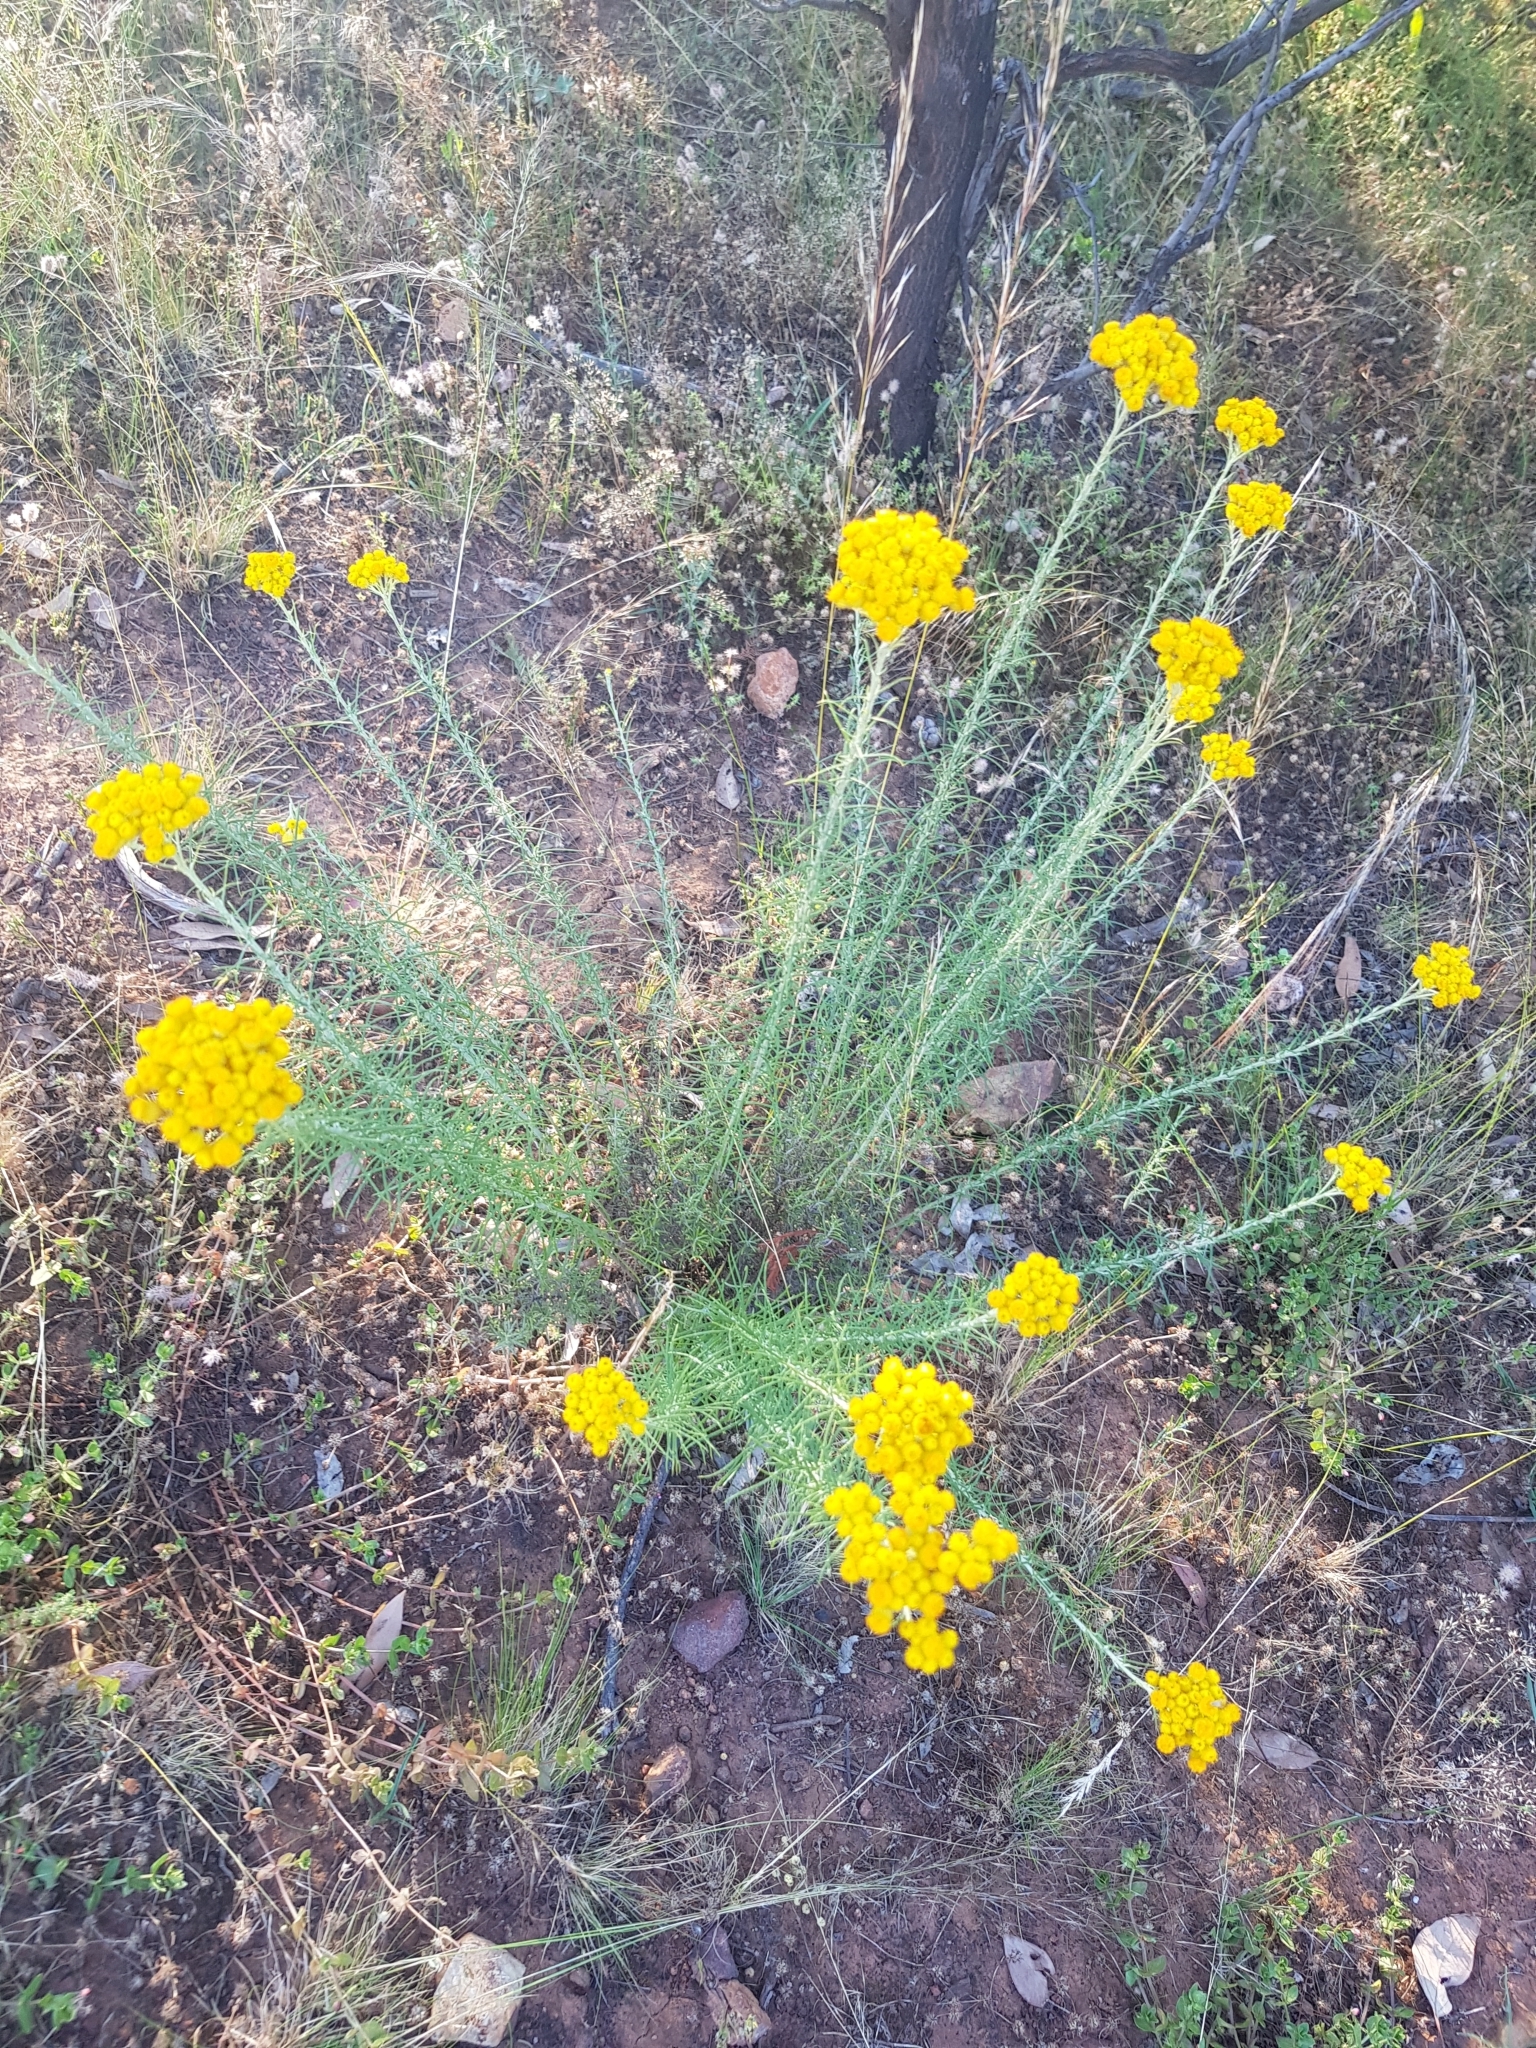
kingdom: Plantae
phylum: Tracheophyta
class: Magnoliopsida
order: Asterales
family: Asteraceae
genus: Chrysocephalum
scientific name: Chrysocephalum semipapposum
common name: Clustered everlasting
